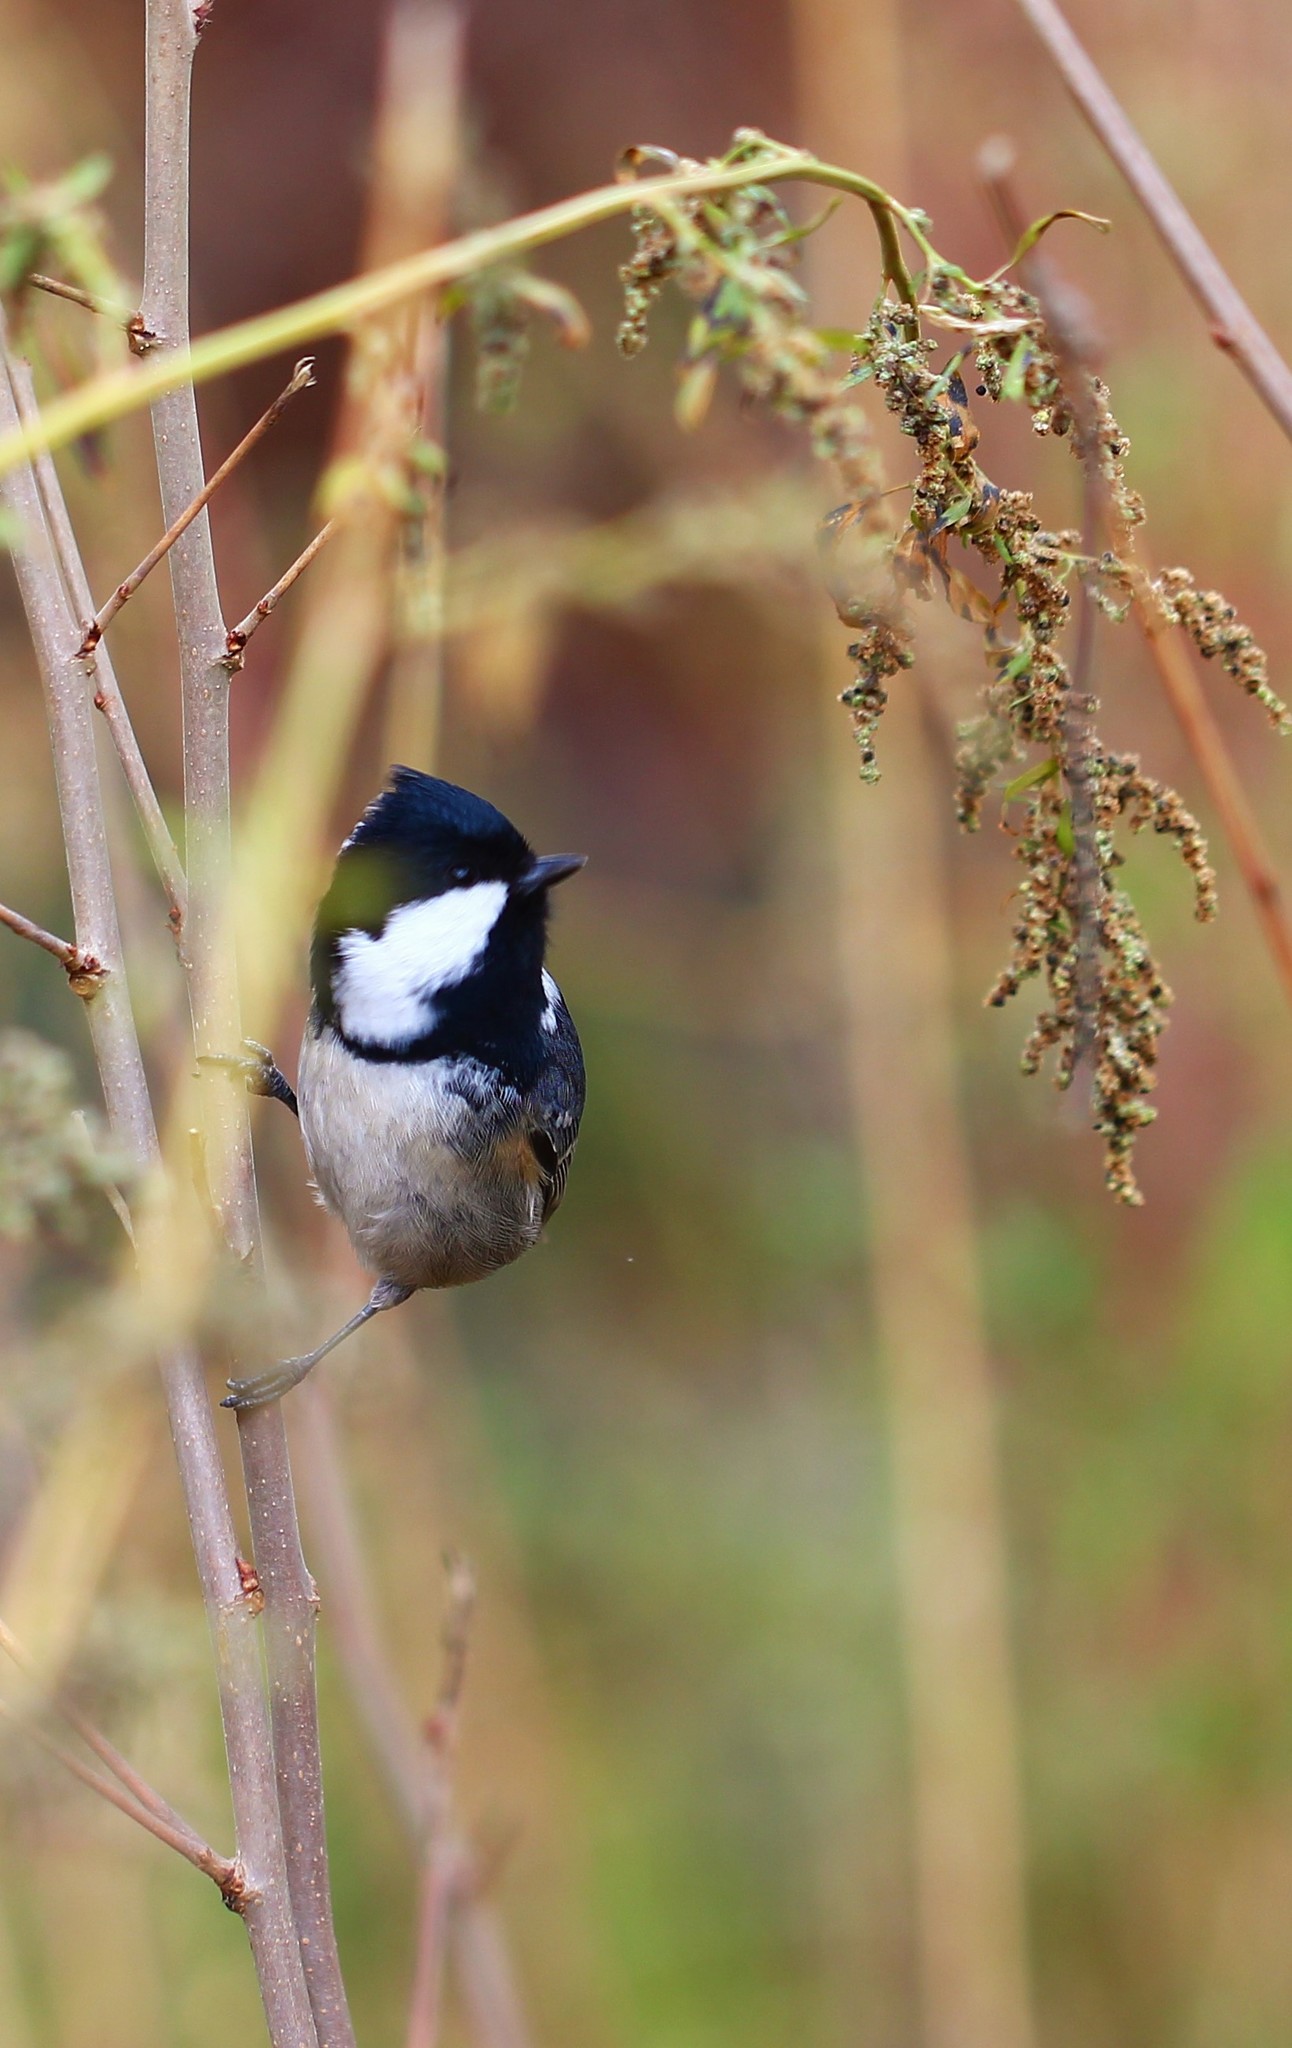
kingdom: Animalia
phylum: Chordata
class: Aves
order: Passeriformes
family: Paridae
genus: Periparus
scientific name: Periparus ater
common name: Coal tit
